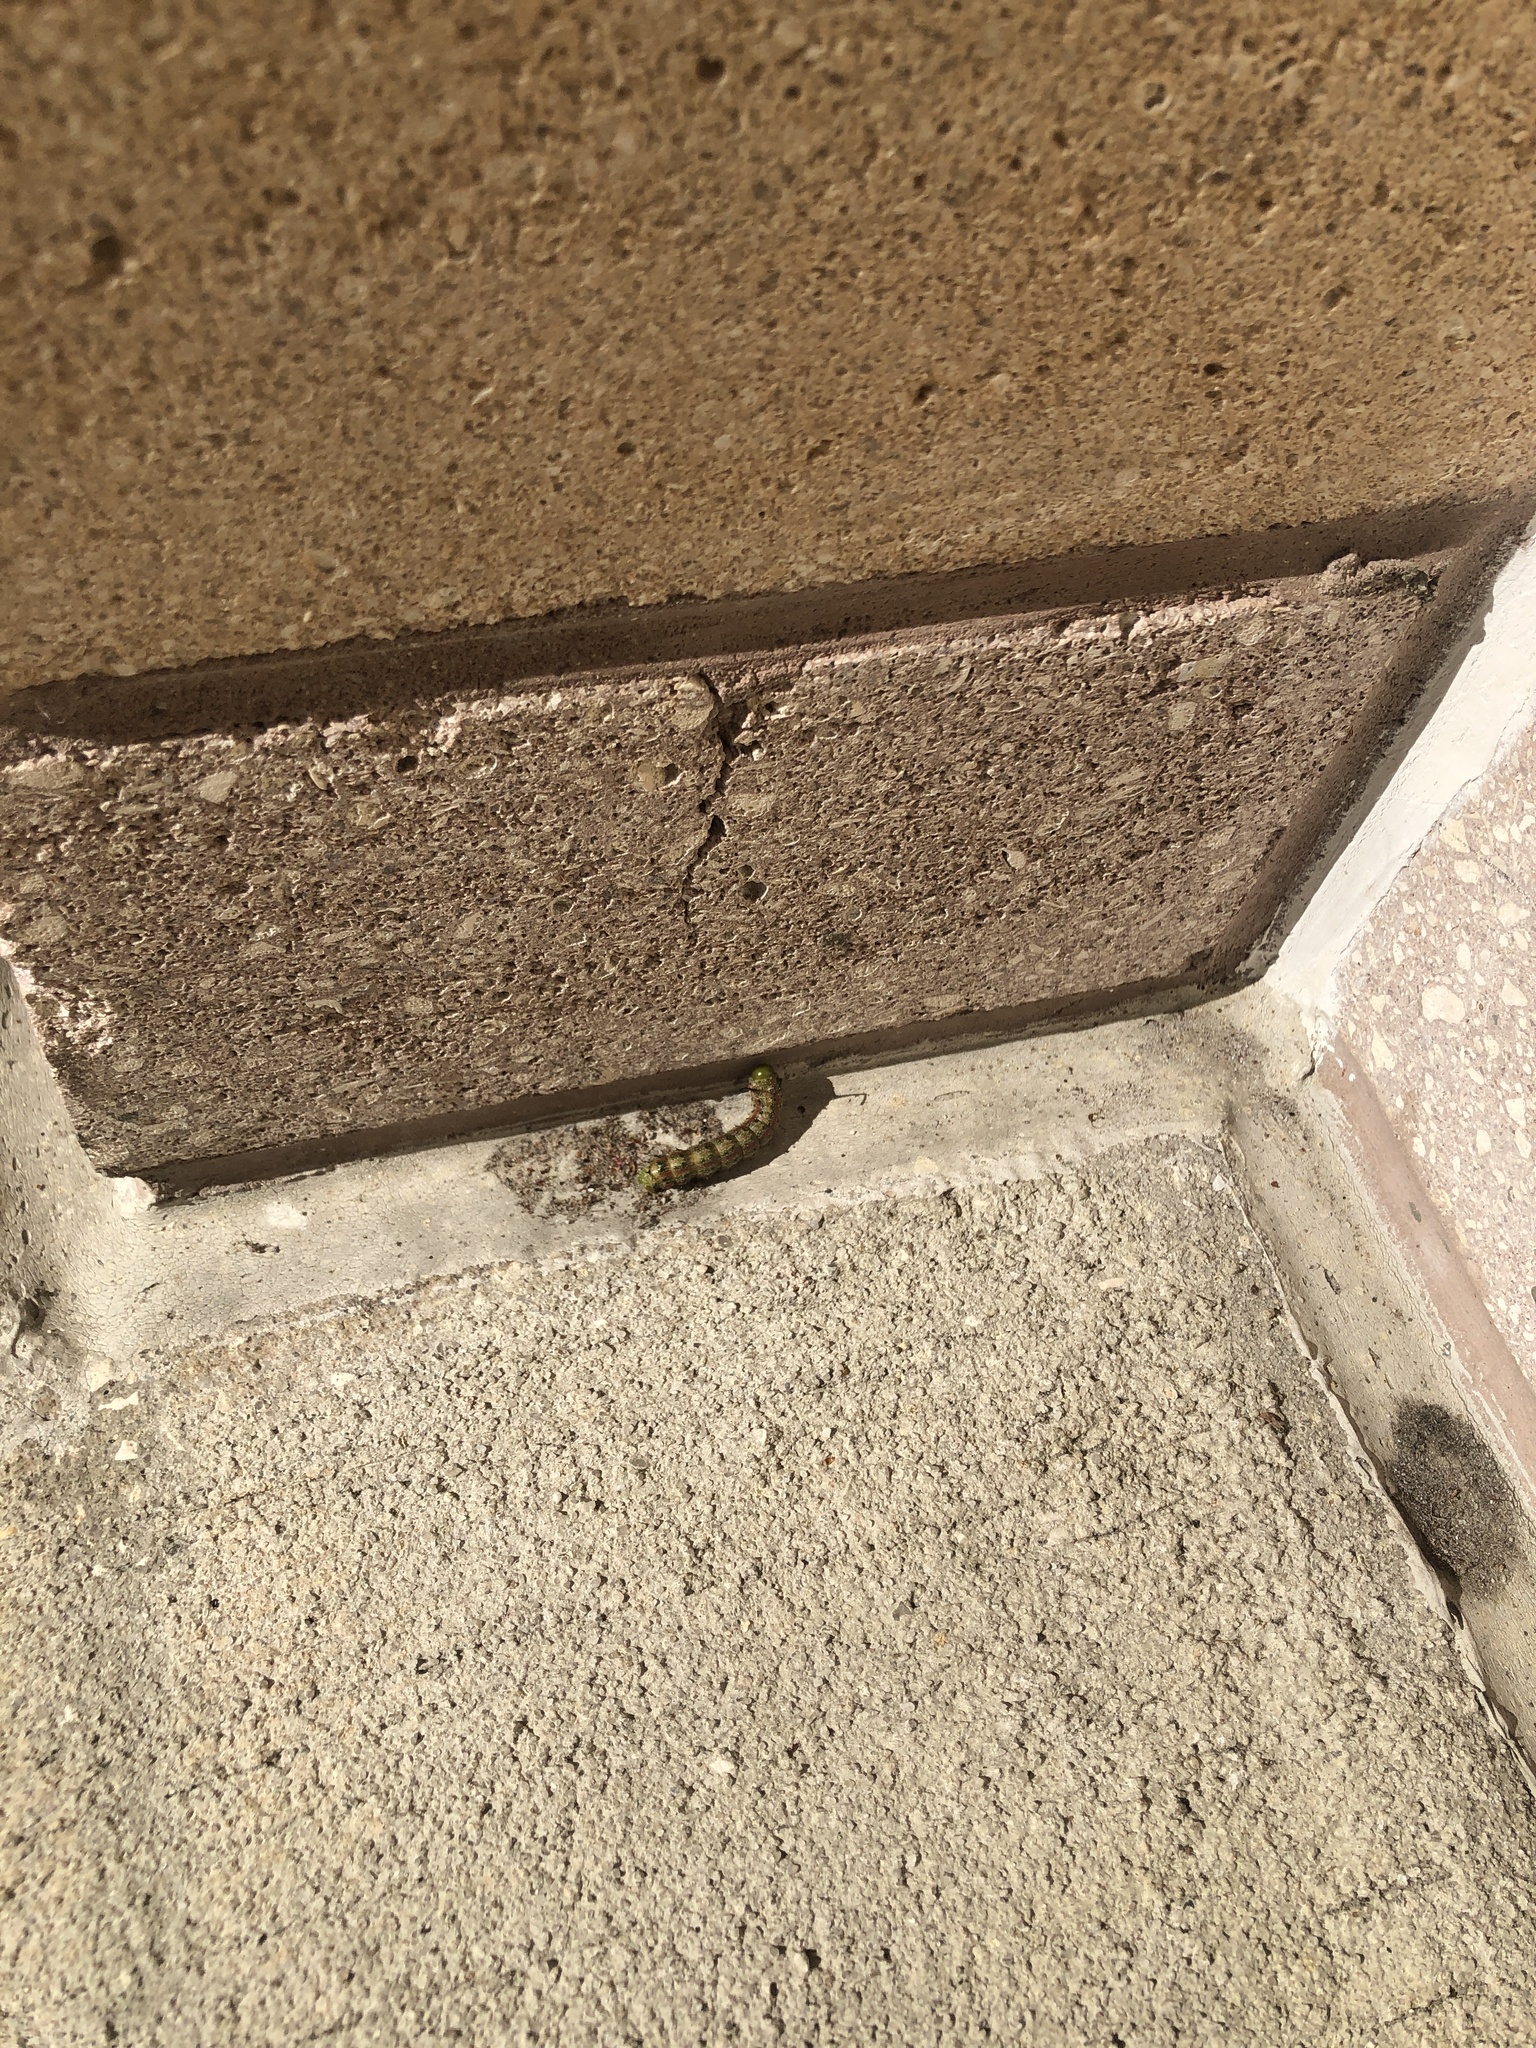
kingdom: Animalia
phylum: Arthropoda
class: Insecta
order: Lepidoptera
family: Saturniidae
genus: Anisota
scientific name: Anisota virginiensis
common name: Pink striped oakworm moth
